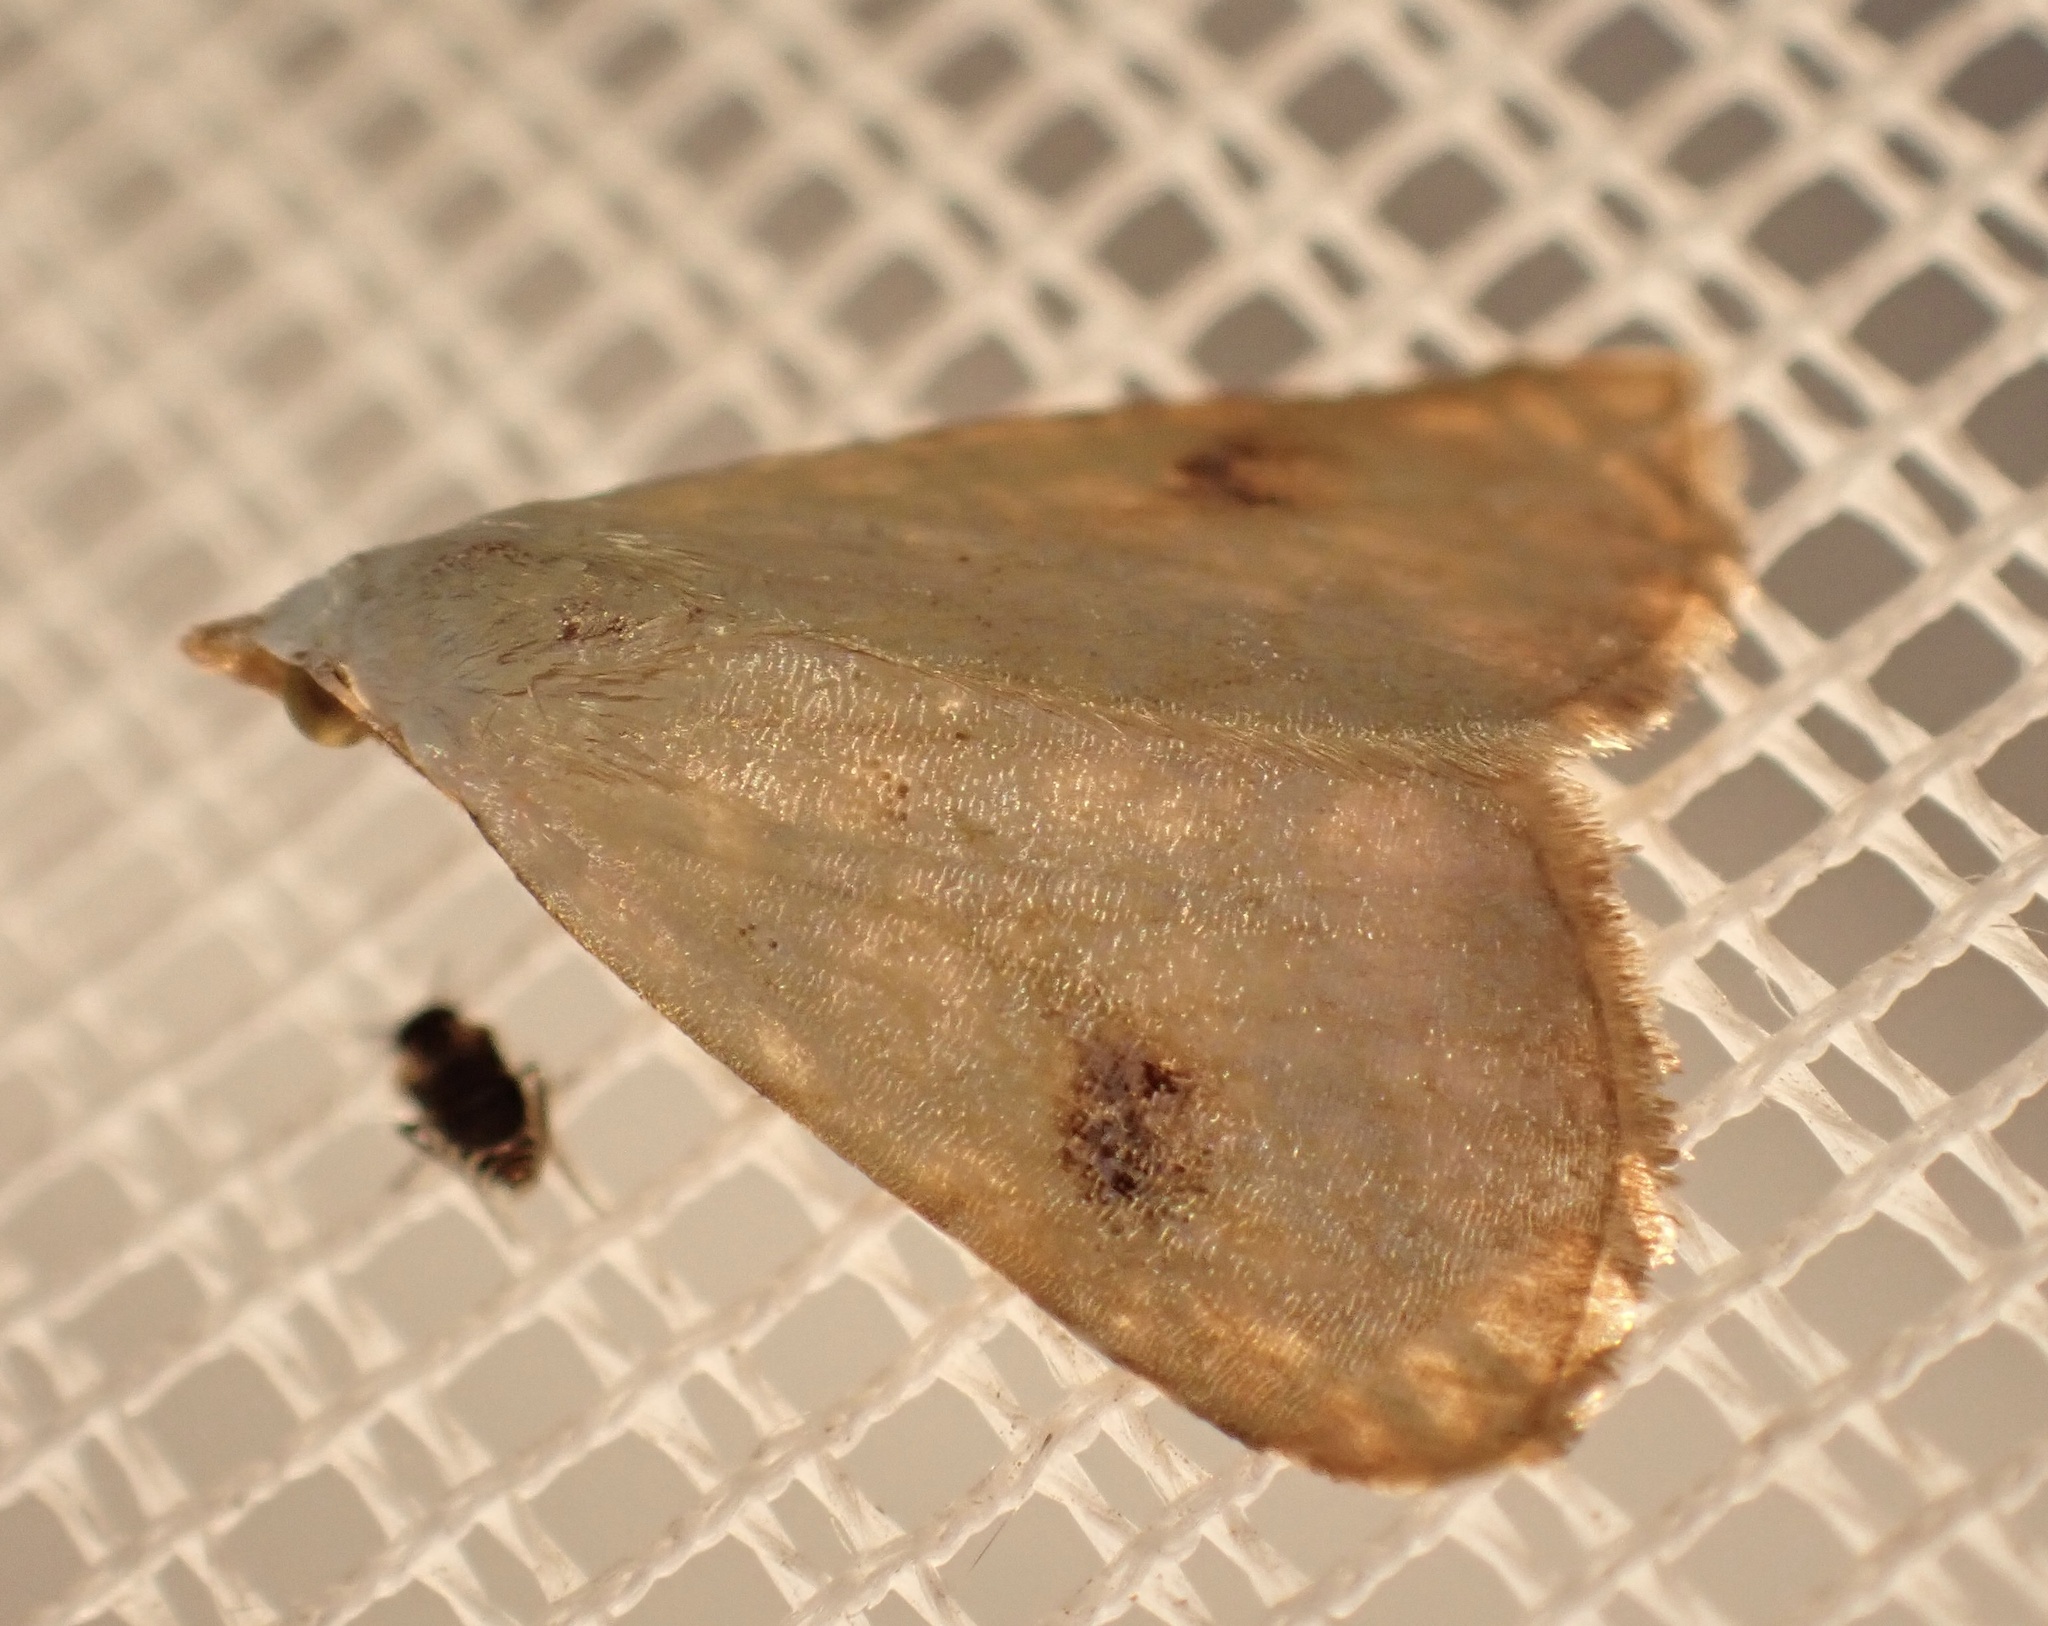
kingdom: Animalia
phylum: Arthropoda
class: Insecta
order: Lepidoptera
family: Erebidae
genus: Rivula
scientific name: Rivula sericealis
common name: Straw dot
